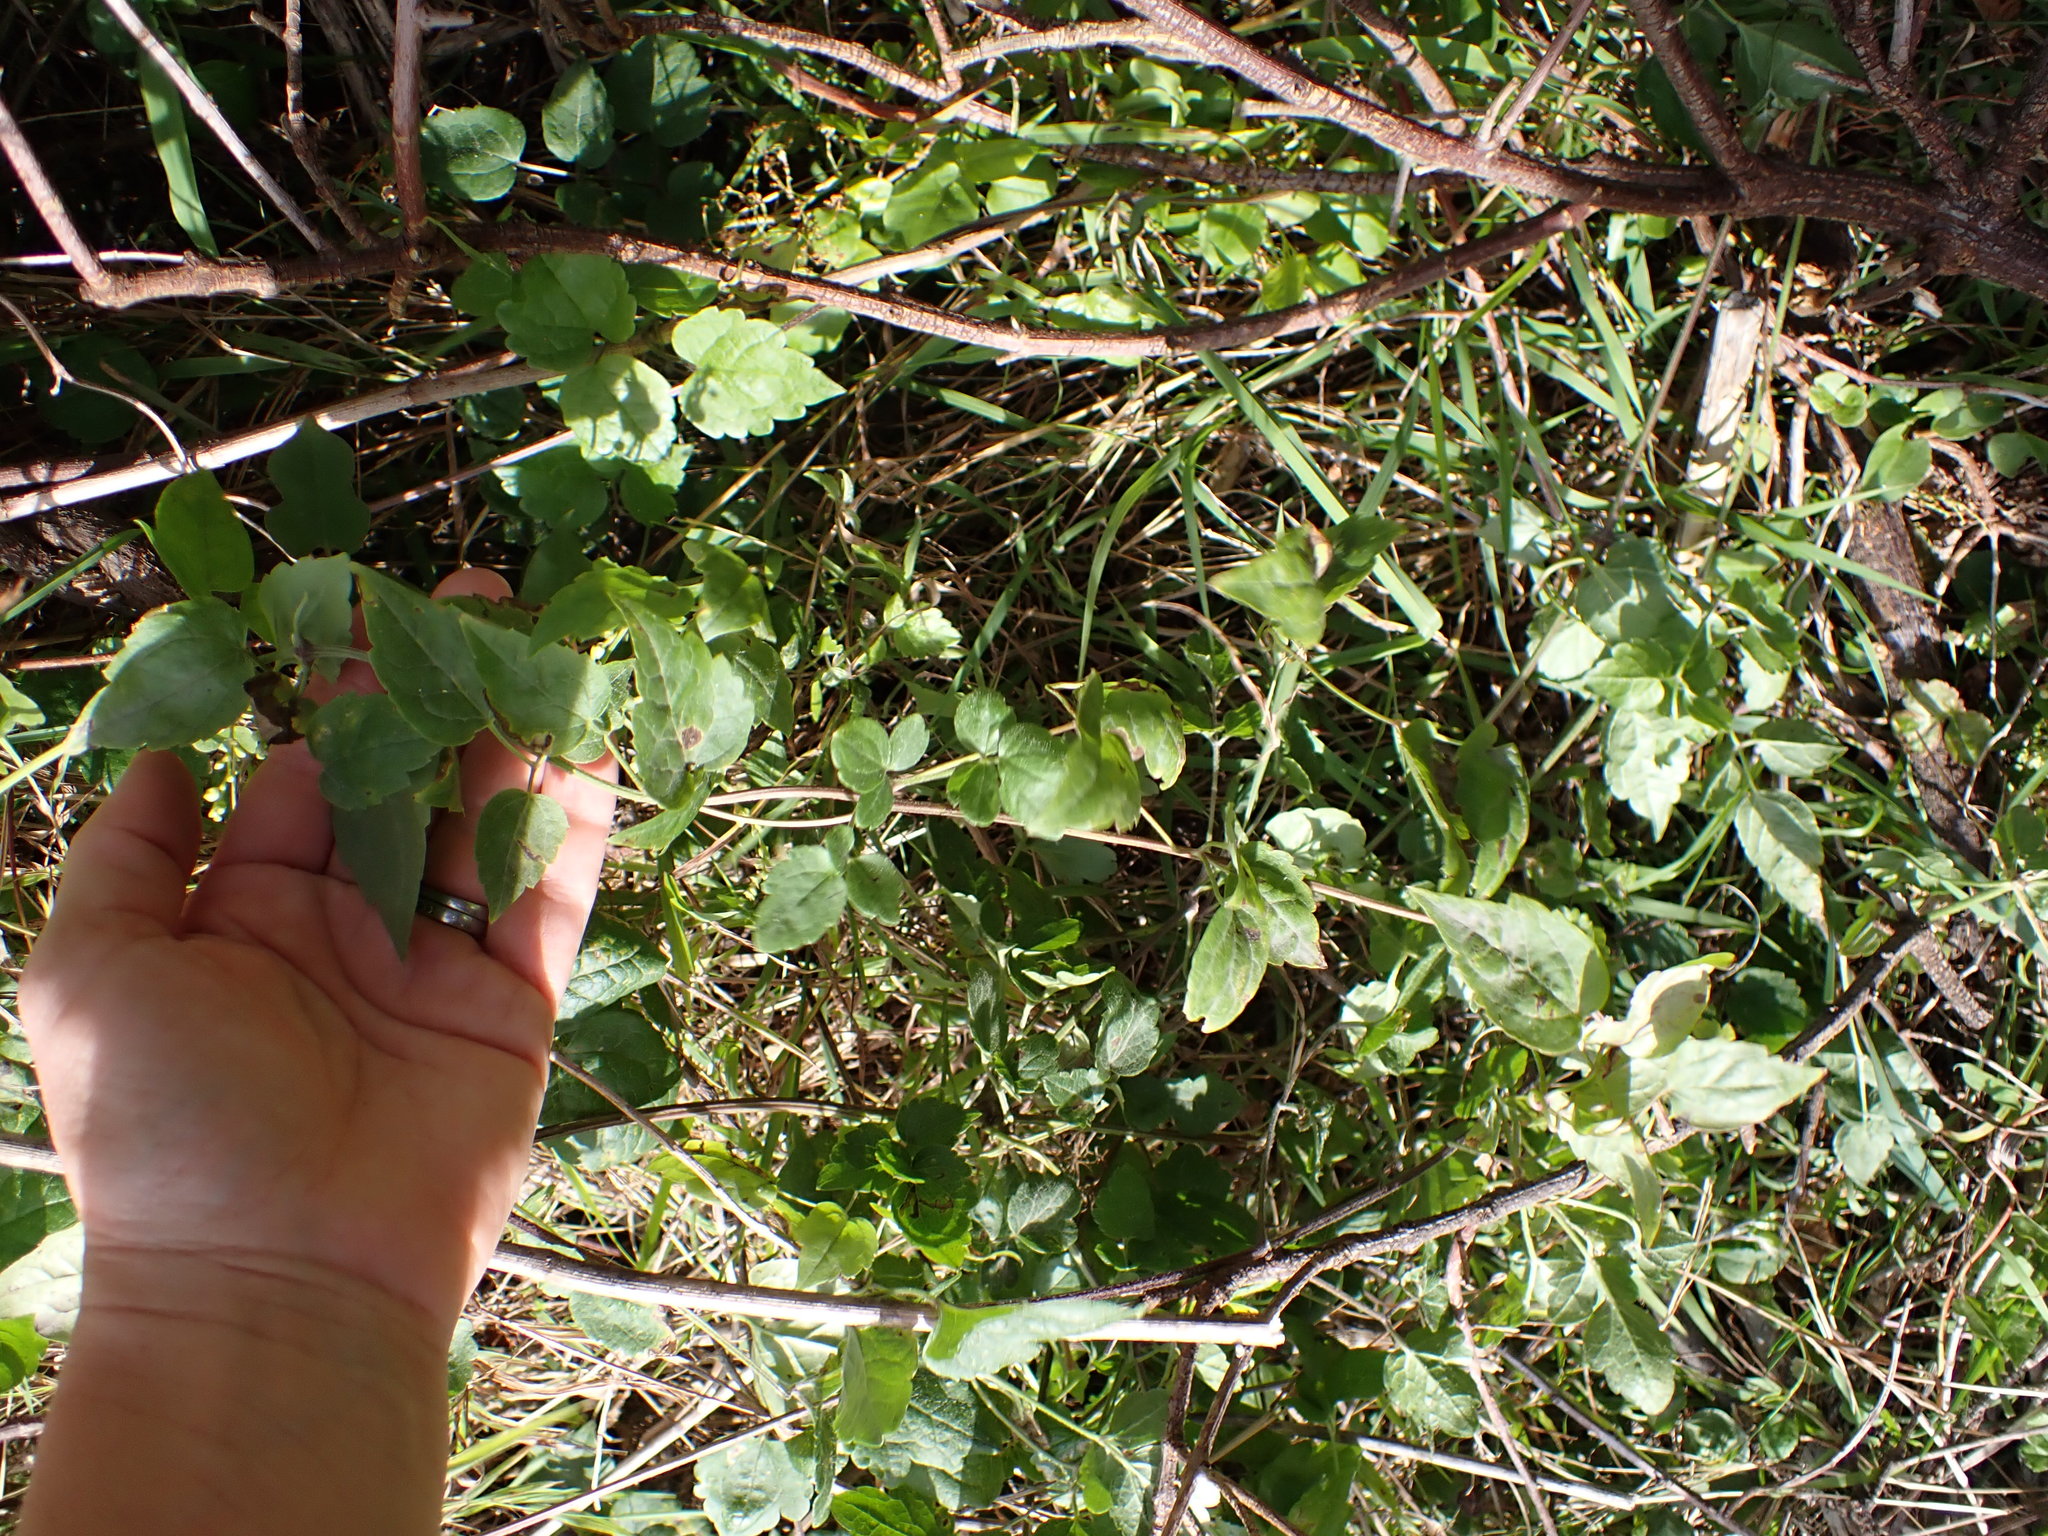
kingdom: Plantae
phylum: Tracheophyta
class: Magnoliopsida
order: Ranunculales
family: Ranunculaceae
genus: Clematis
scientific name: Clematis vitalba
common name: Evergreen clematis
